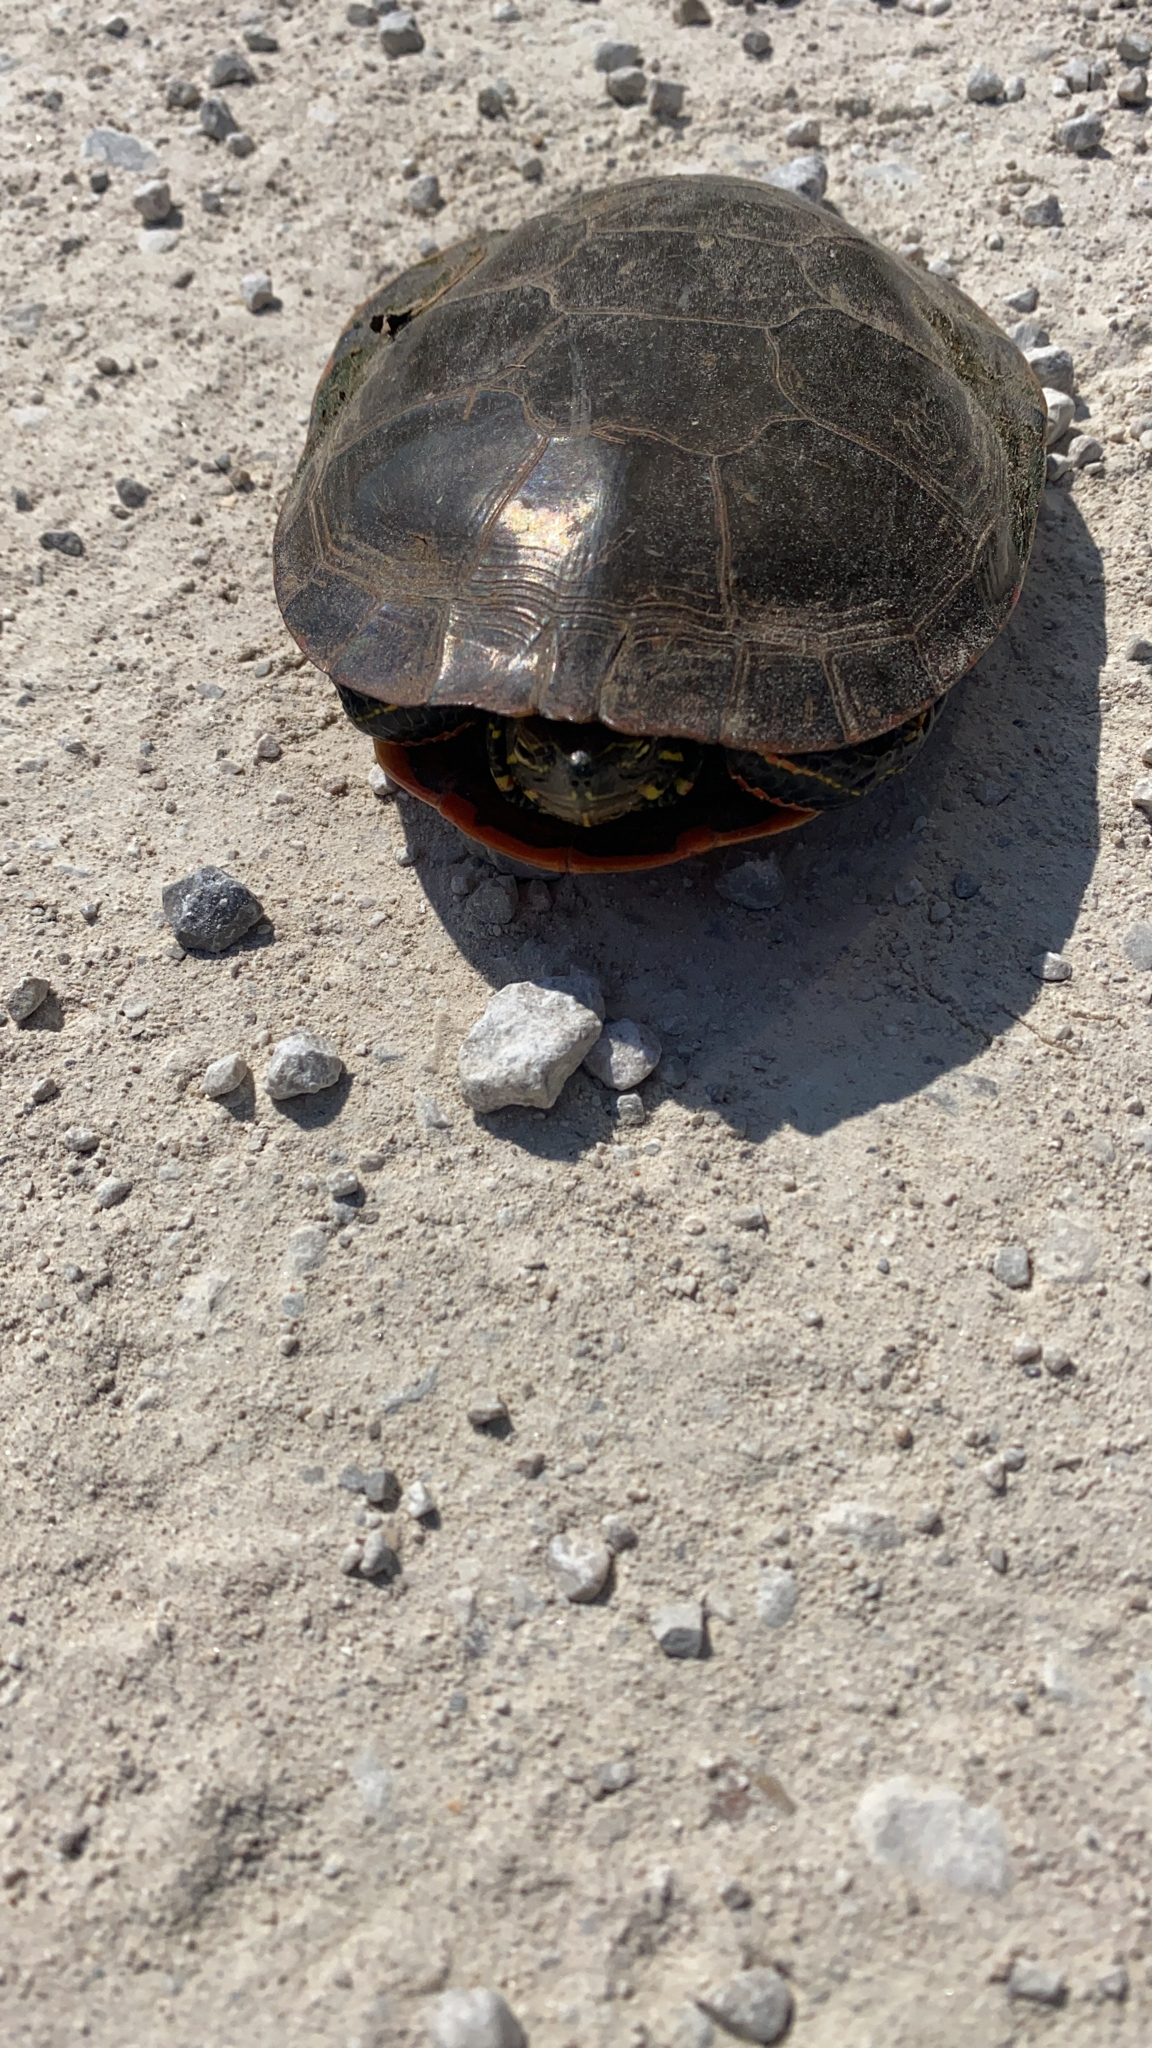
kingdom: Animalia
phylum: Chordata
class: Testudines
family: Emydidae
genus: Chrysemys
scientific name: Chrysemys picta
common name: Painted turtle
